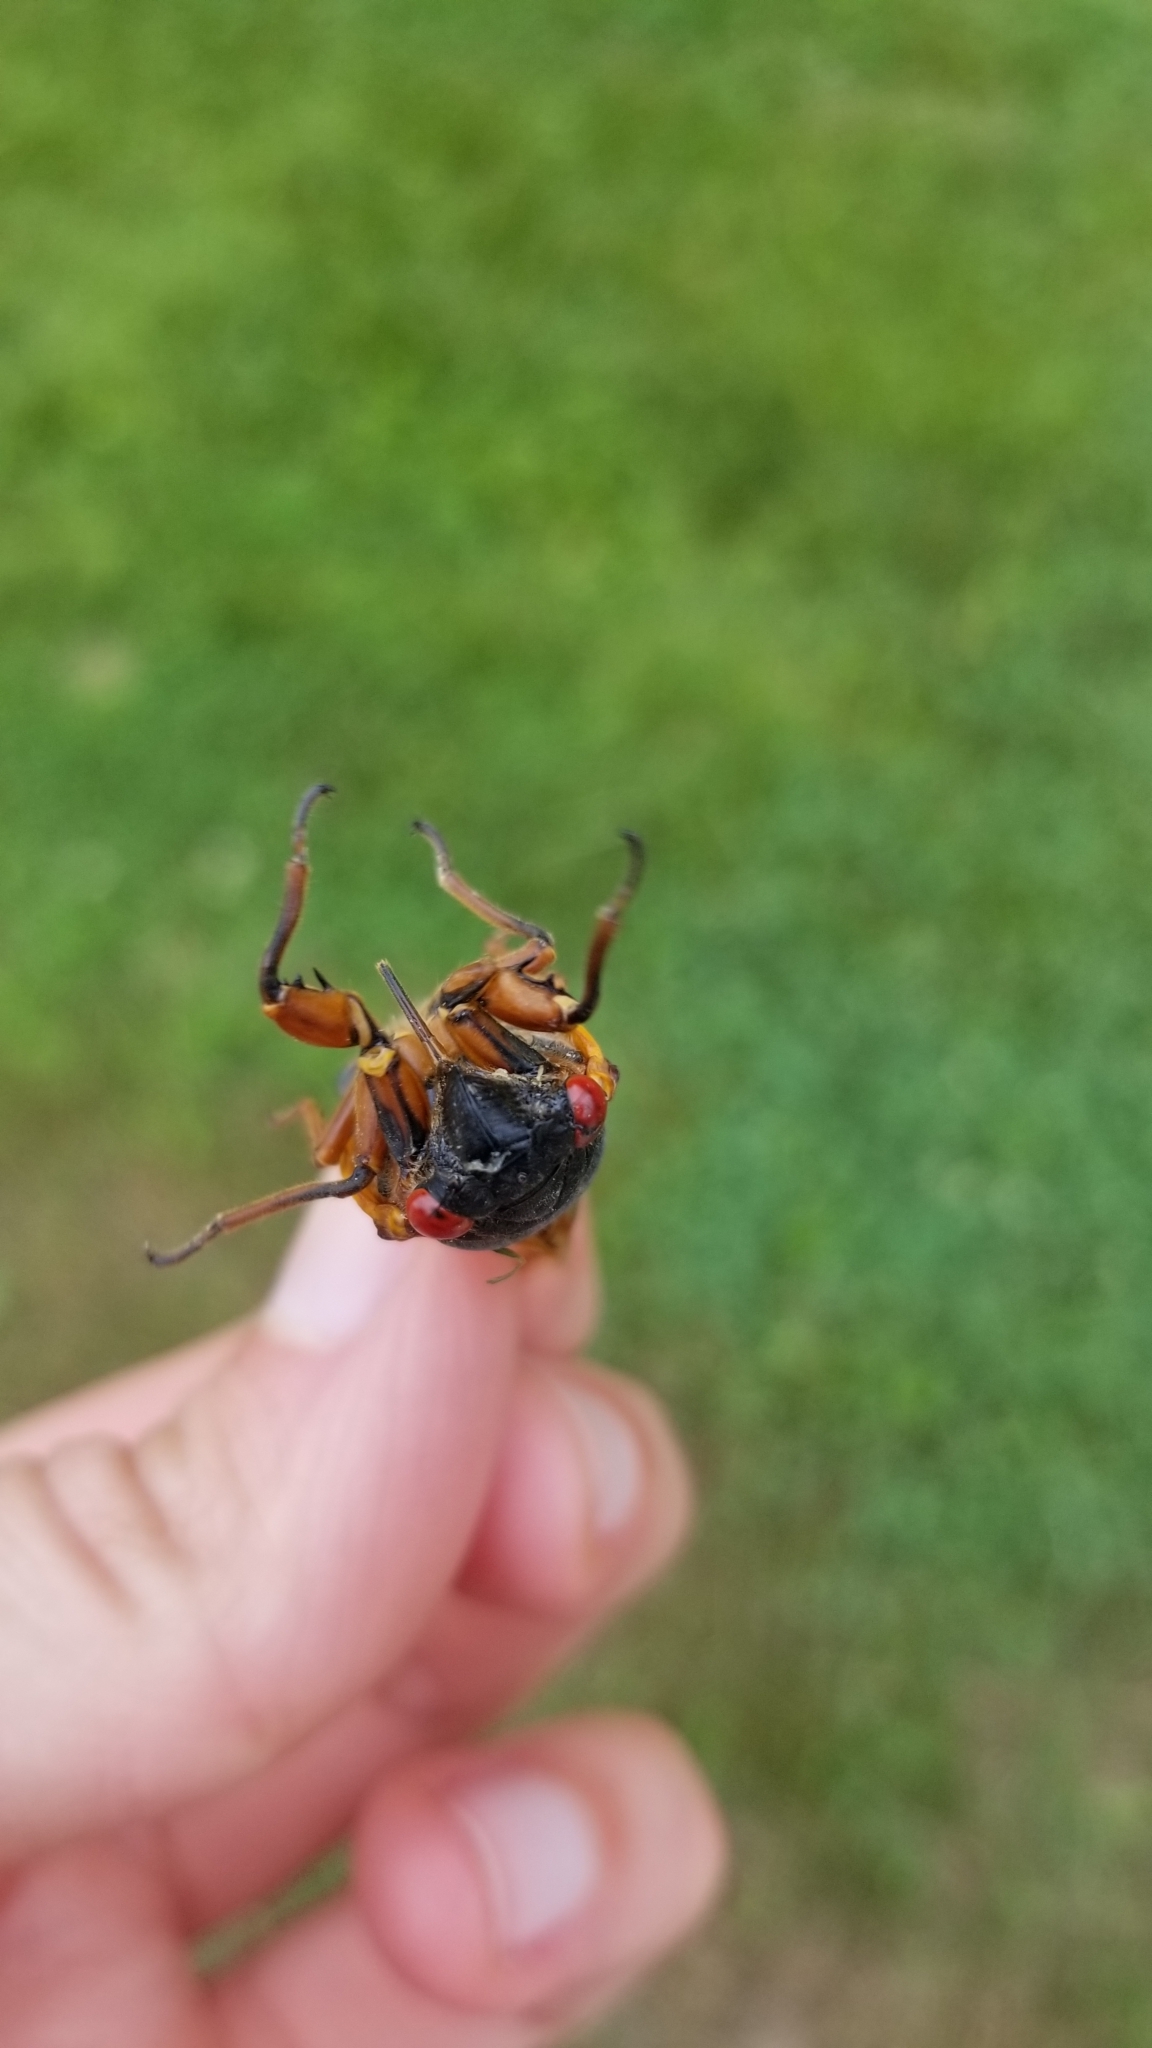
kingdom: Animalia
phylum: Arthropoda
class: Insecta
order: Hemiptera
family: Cicadidae
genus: Magicicada
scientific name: Magicicada septendecim
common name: Periodical cicada
